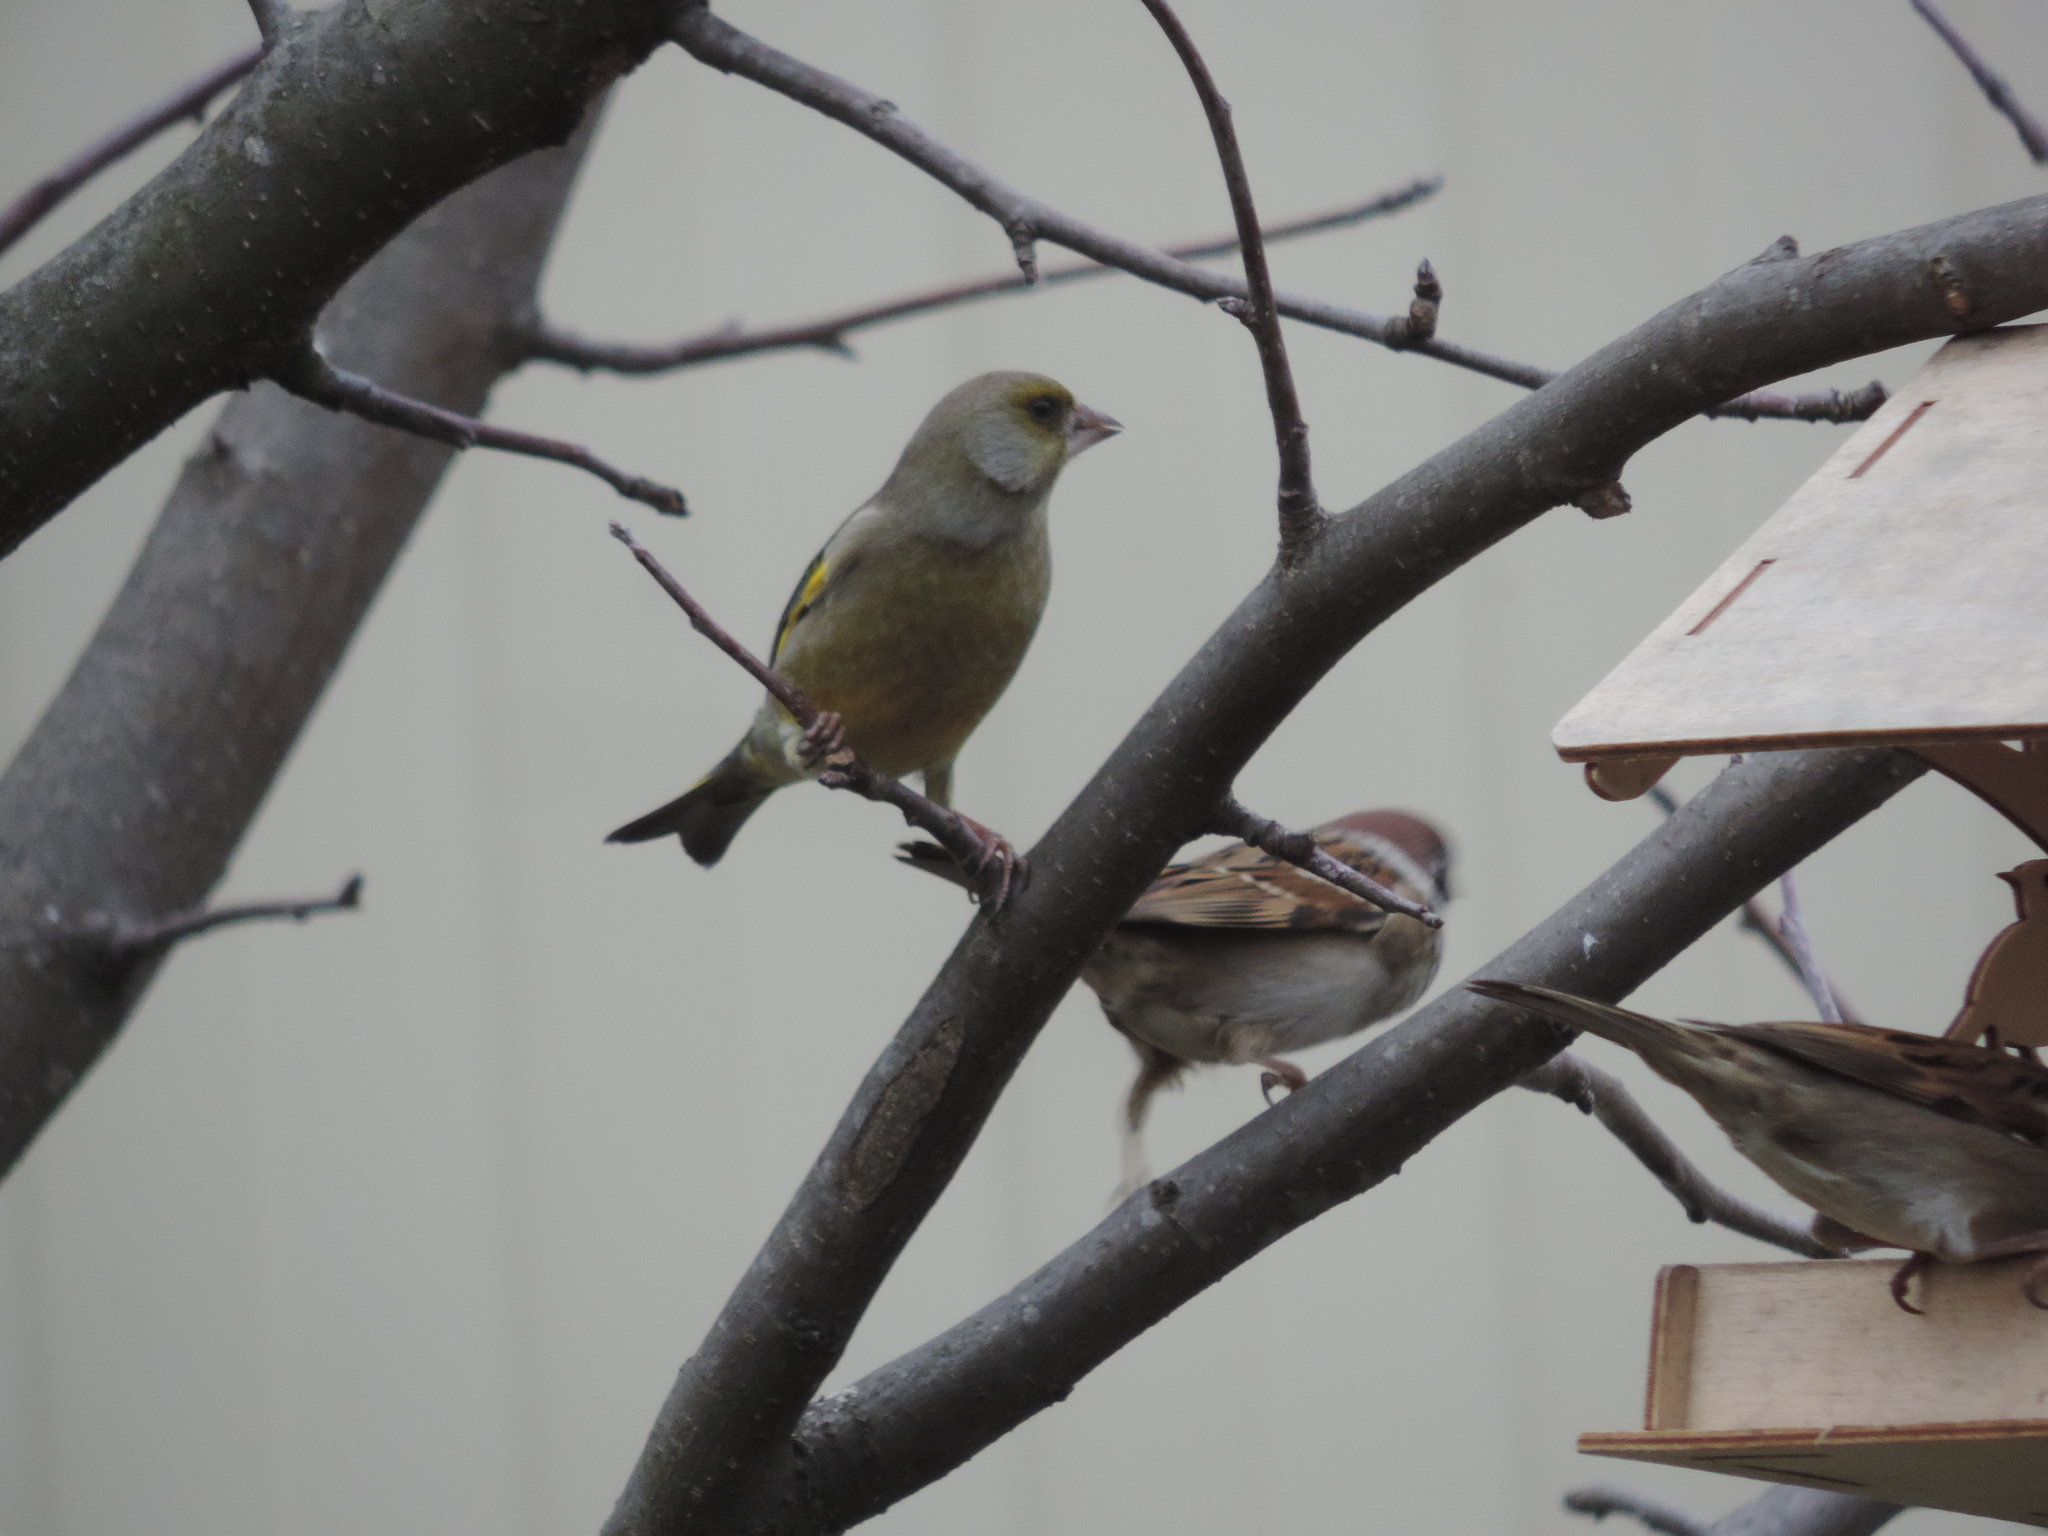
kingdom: Plantae
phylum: Tracheophyta
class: Liliopsida
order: Poales
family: Poaceae
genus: Chloris
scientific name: Chloris chloris
